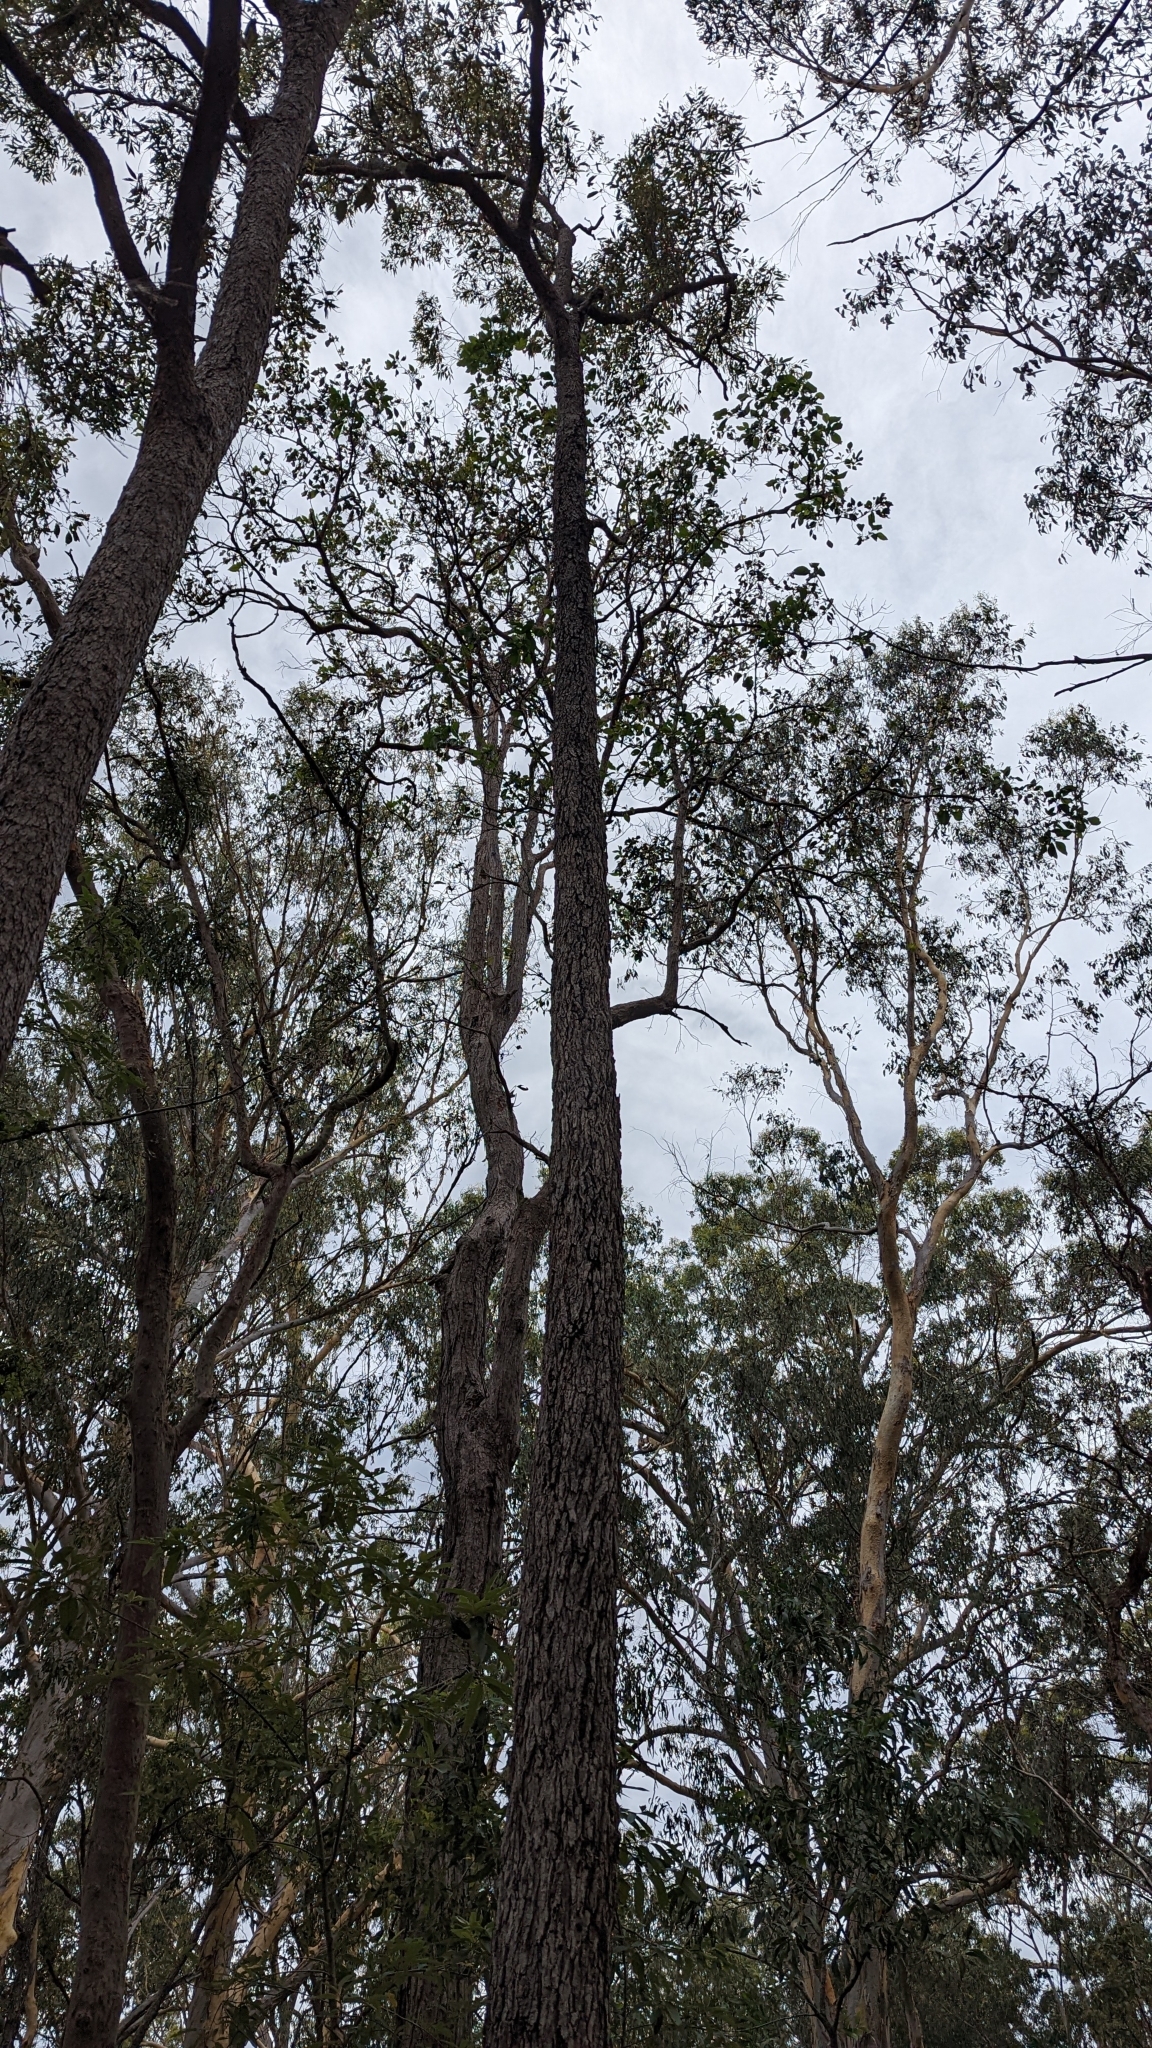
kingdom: Plantae
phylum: Tracheophyta
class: Magnoliopsida
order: Myrtales
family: Myrtaceae
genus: Corymbia
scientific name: Corymbia intermedia
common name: Pink-bloodwood
